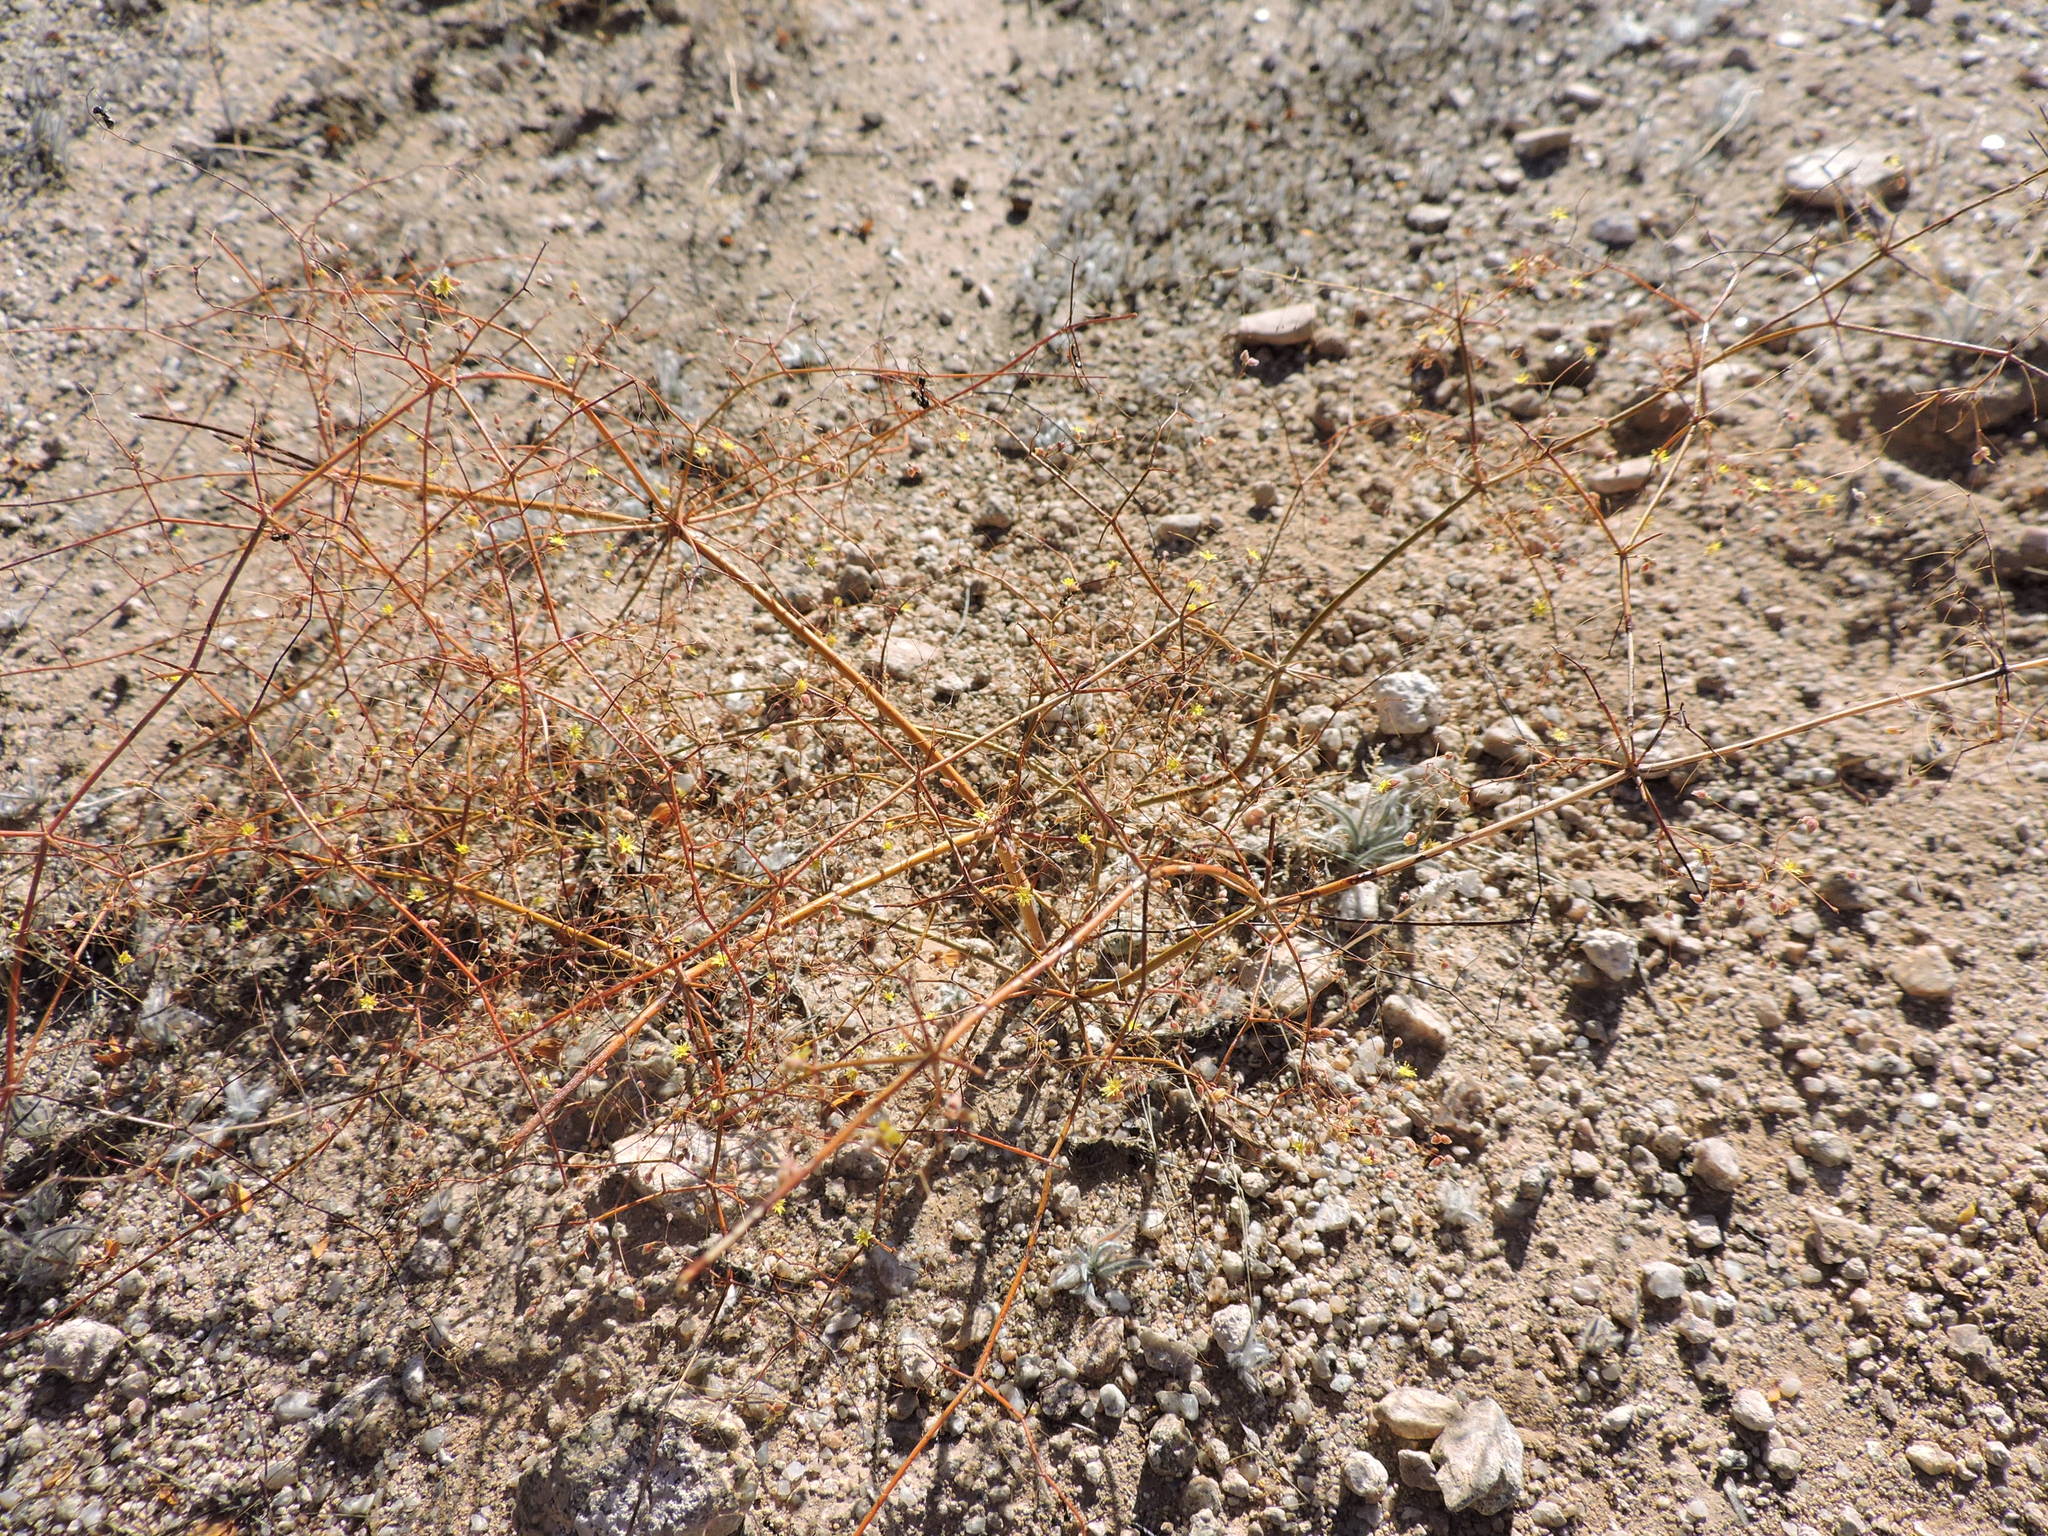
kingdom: Plantae
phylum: Tracheophyta
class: Magnoliopsida
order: Caryophyllales
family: Polygonaceae
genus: Eriogonum
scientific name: Eriogonum trichopes
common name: Little desert trumpet
